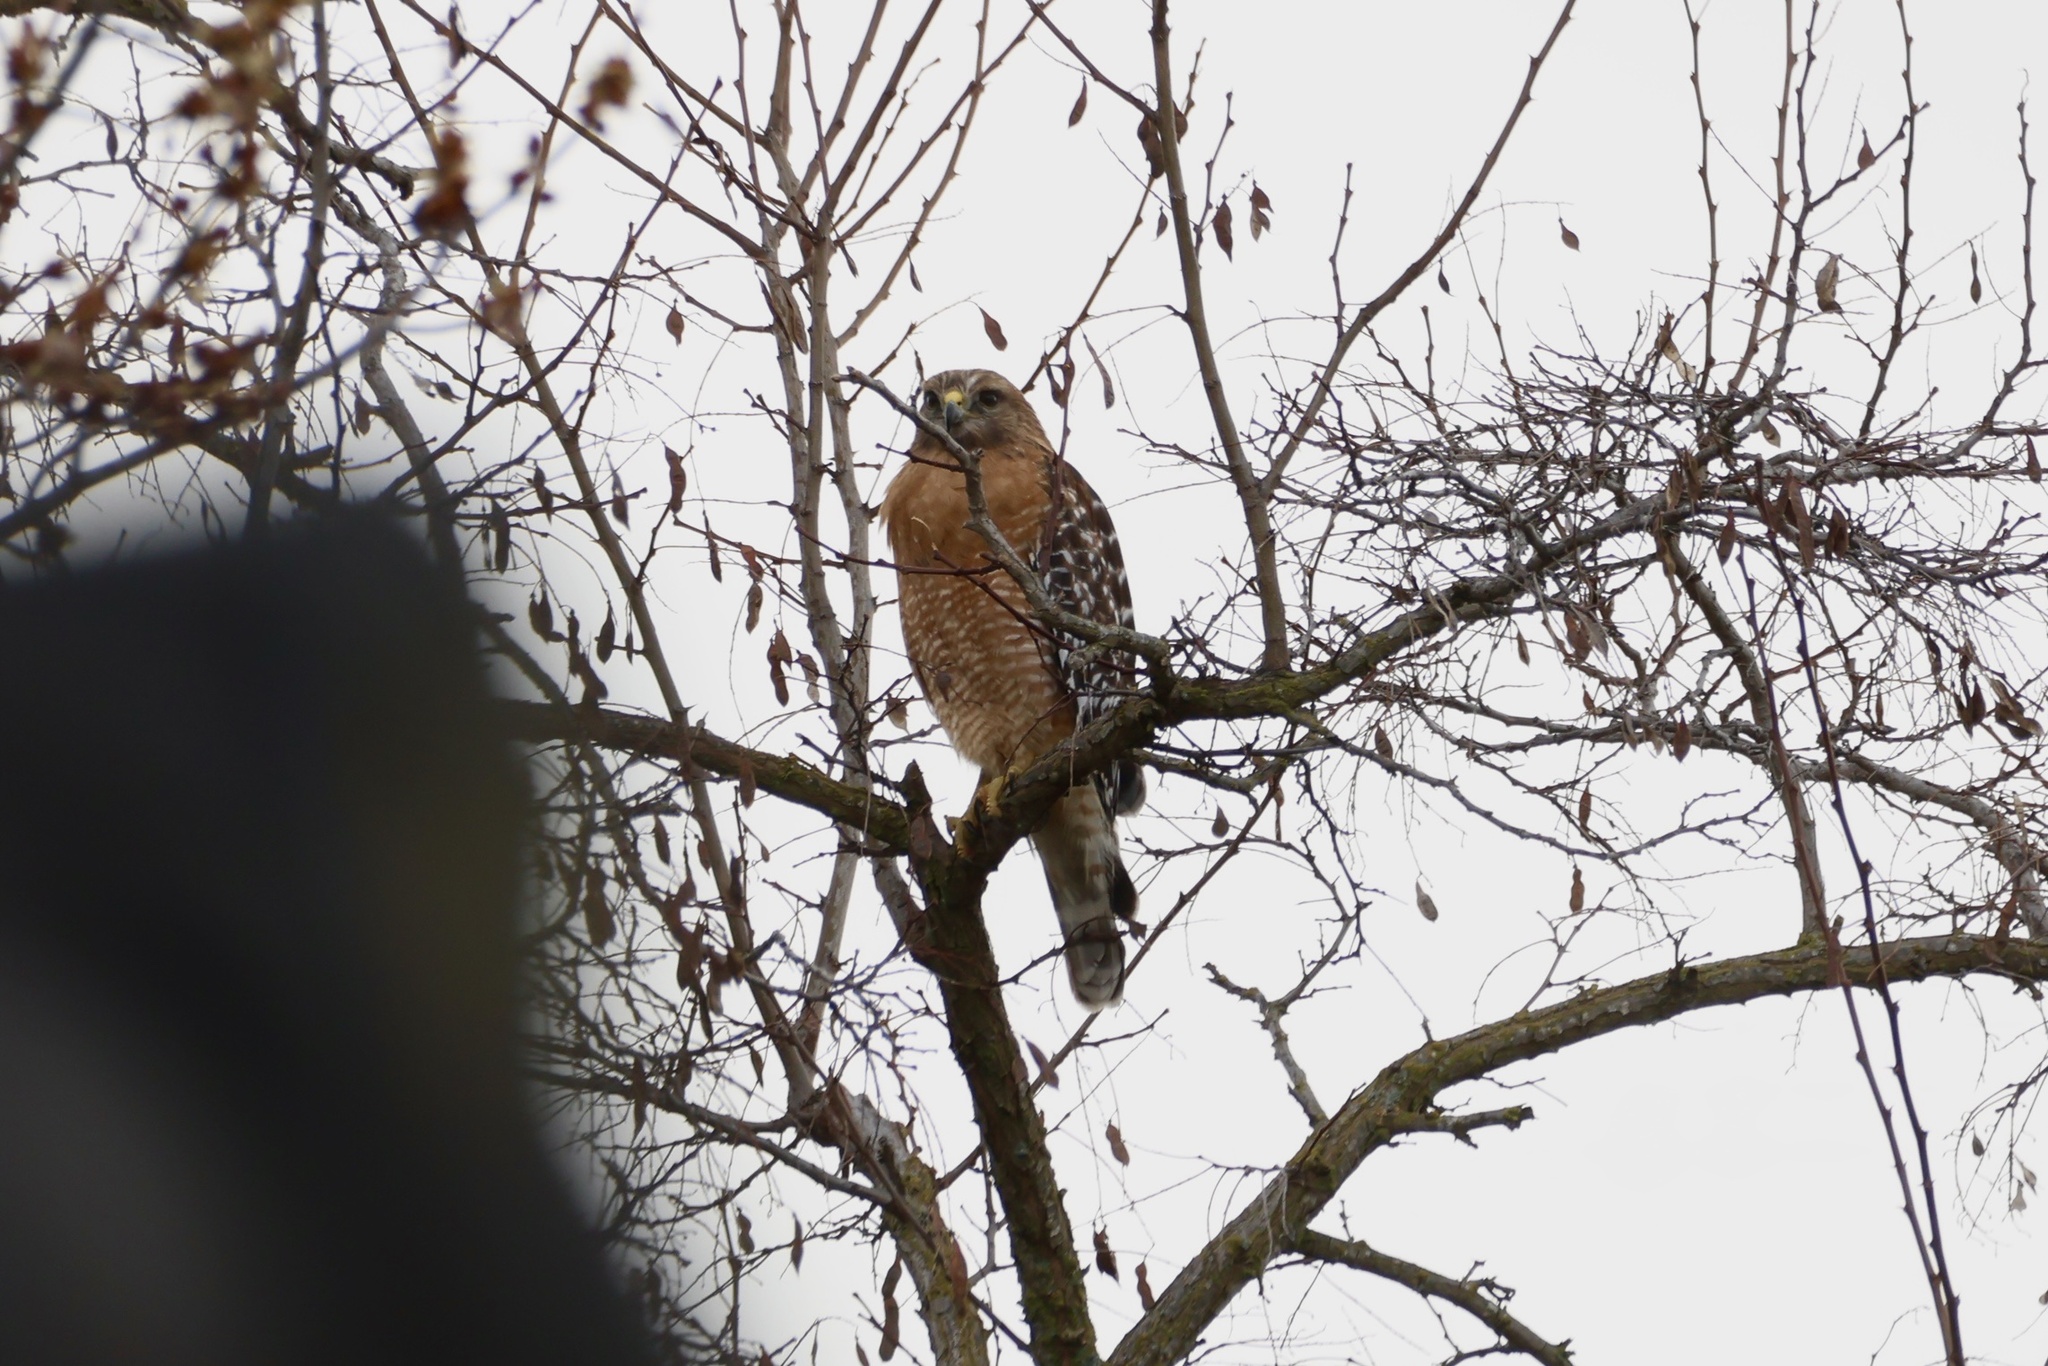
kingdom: Animalia
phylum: Chordata
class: Aves
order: Accipitriformes
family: Accipitridae
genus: Buteo
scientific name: Buteo lineatus
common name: Red-shouldered hawk
